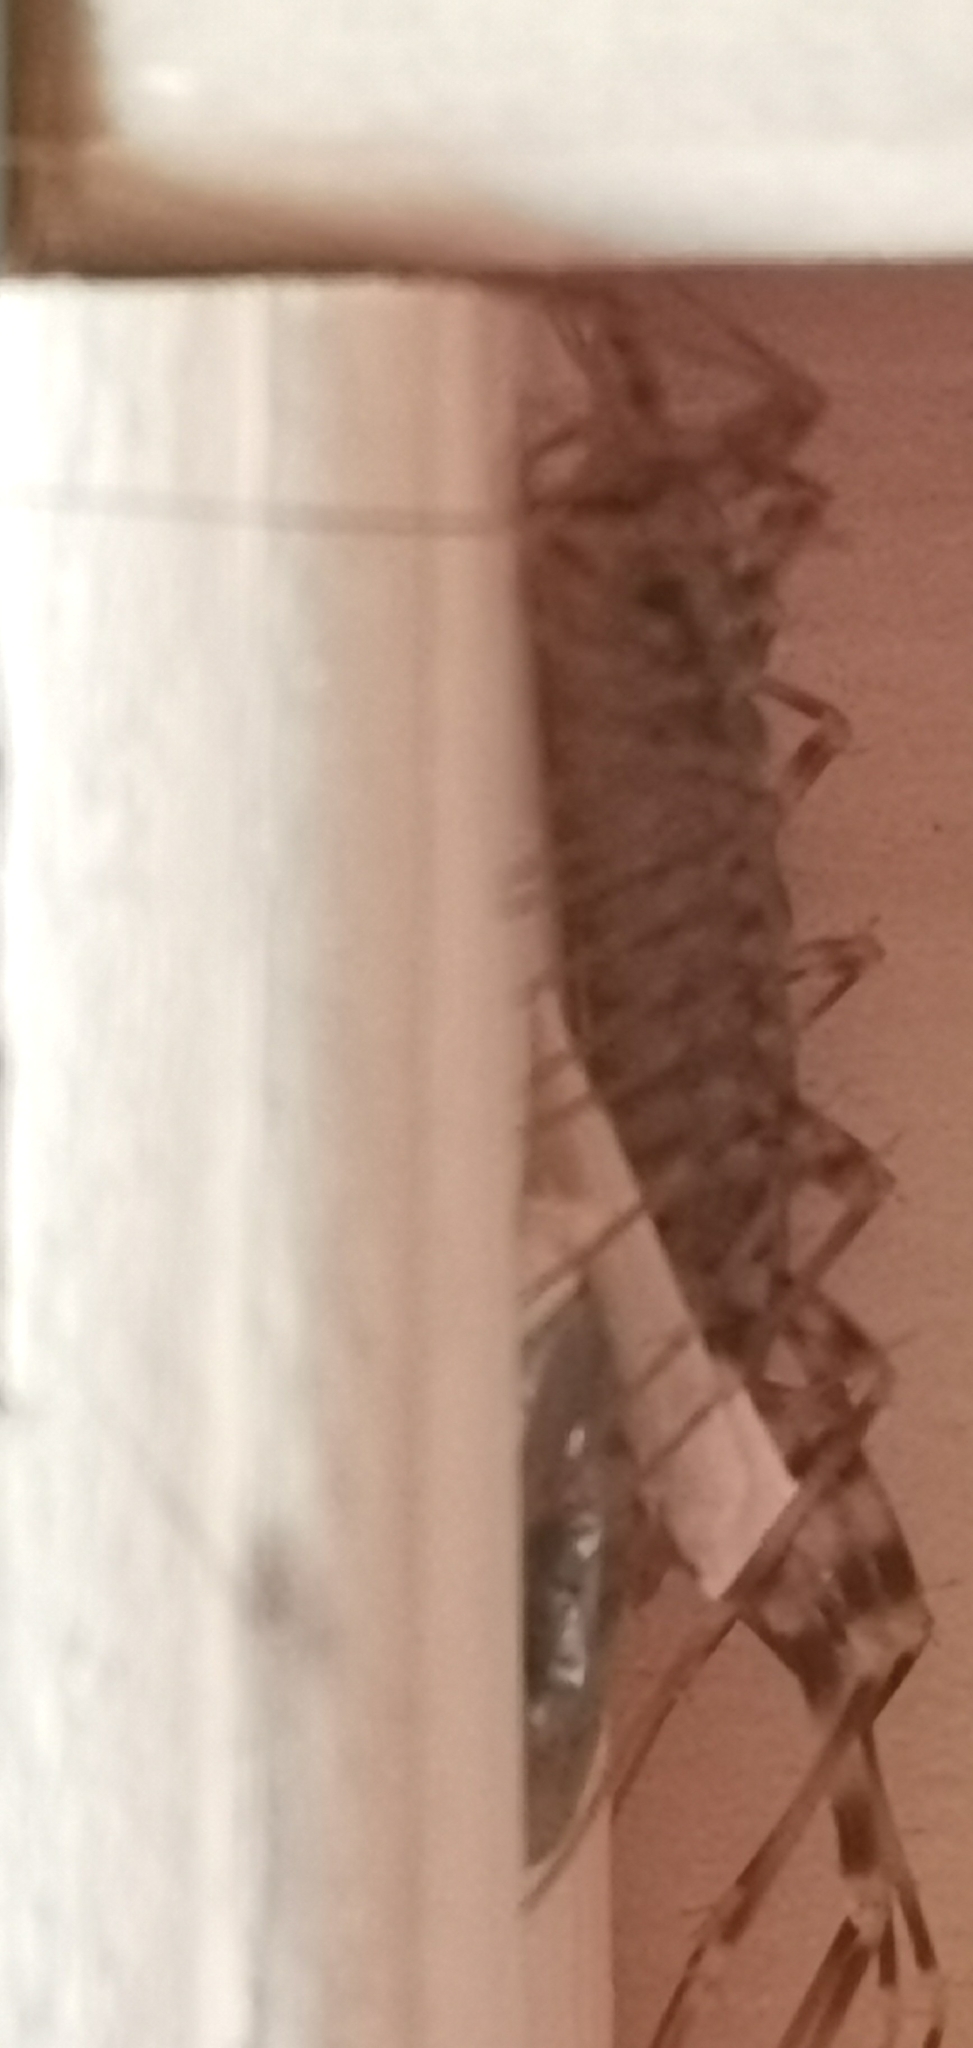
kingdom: Animalia
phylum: Arthropoda
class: Chilopoda
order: Scutigeromorpha
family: Scutigeridae
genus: Scutigera
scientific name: Scutigera coleoptrata
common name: House centipede
